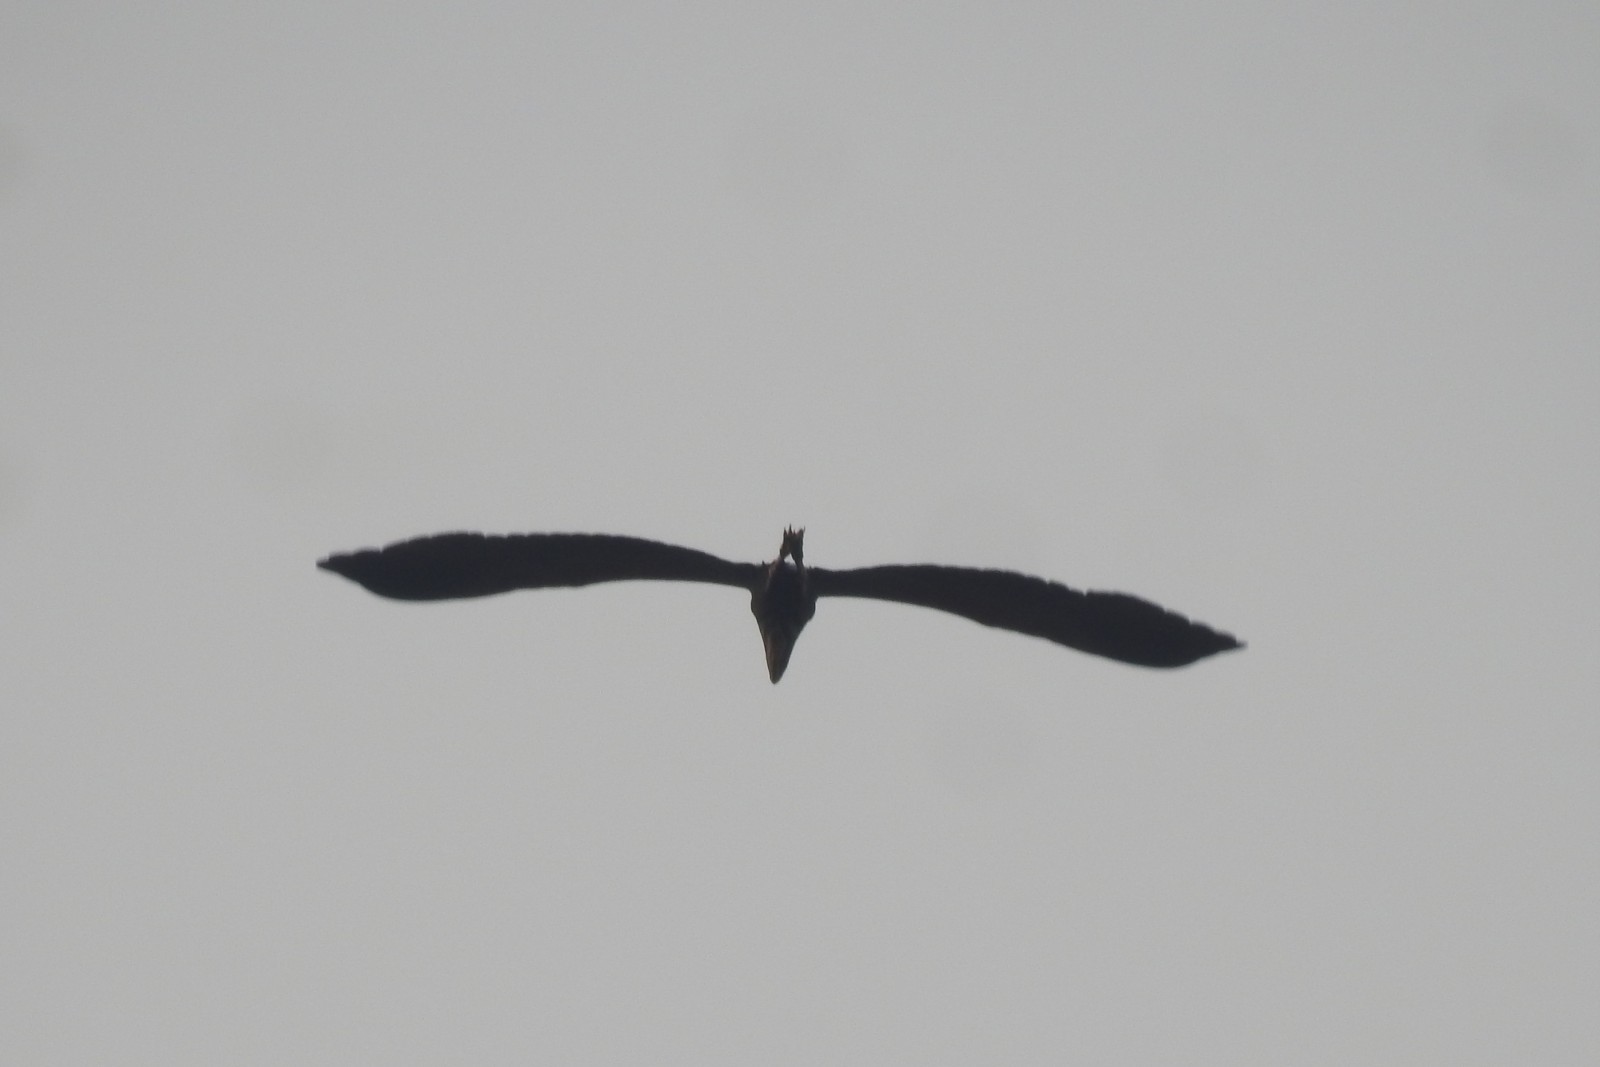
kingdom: Animalia
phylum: Chordata
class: Aves
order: Pelecaniformes
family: Ardeidae
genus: Ardea
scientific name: Ardea cinerea
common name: Grey heron
